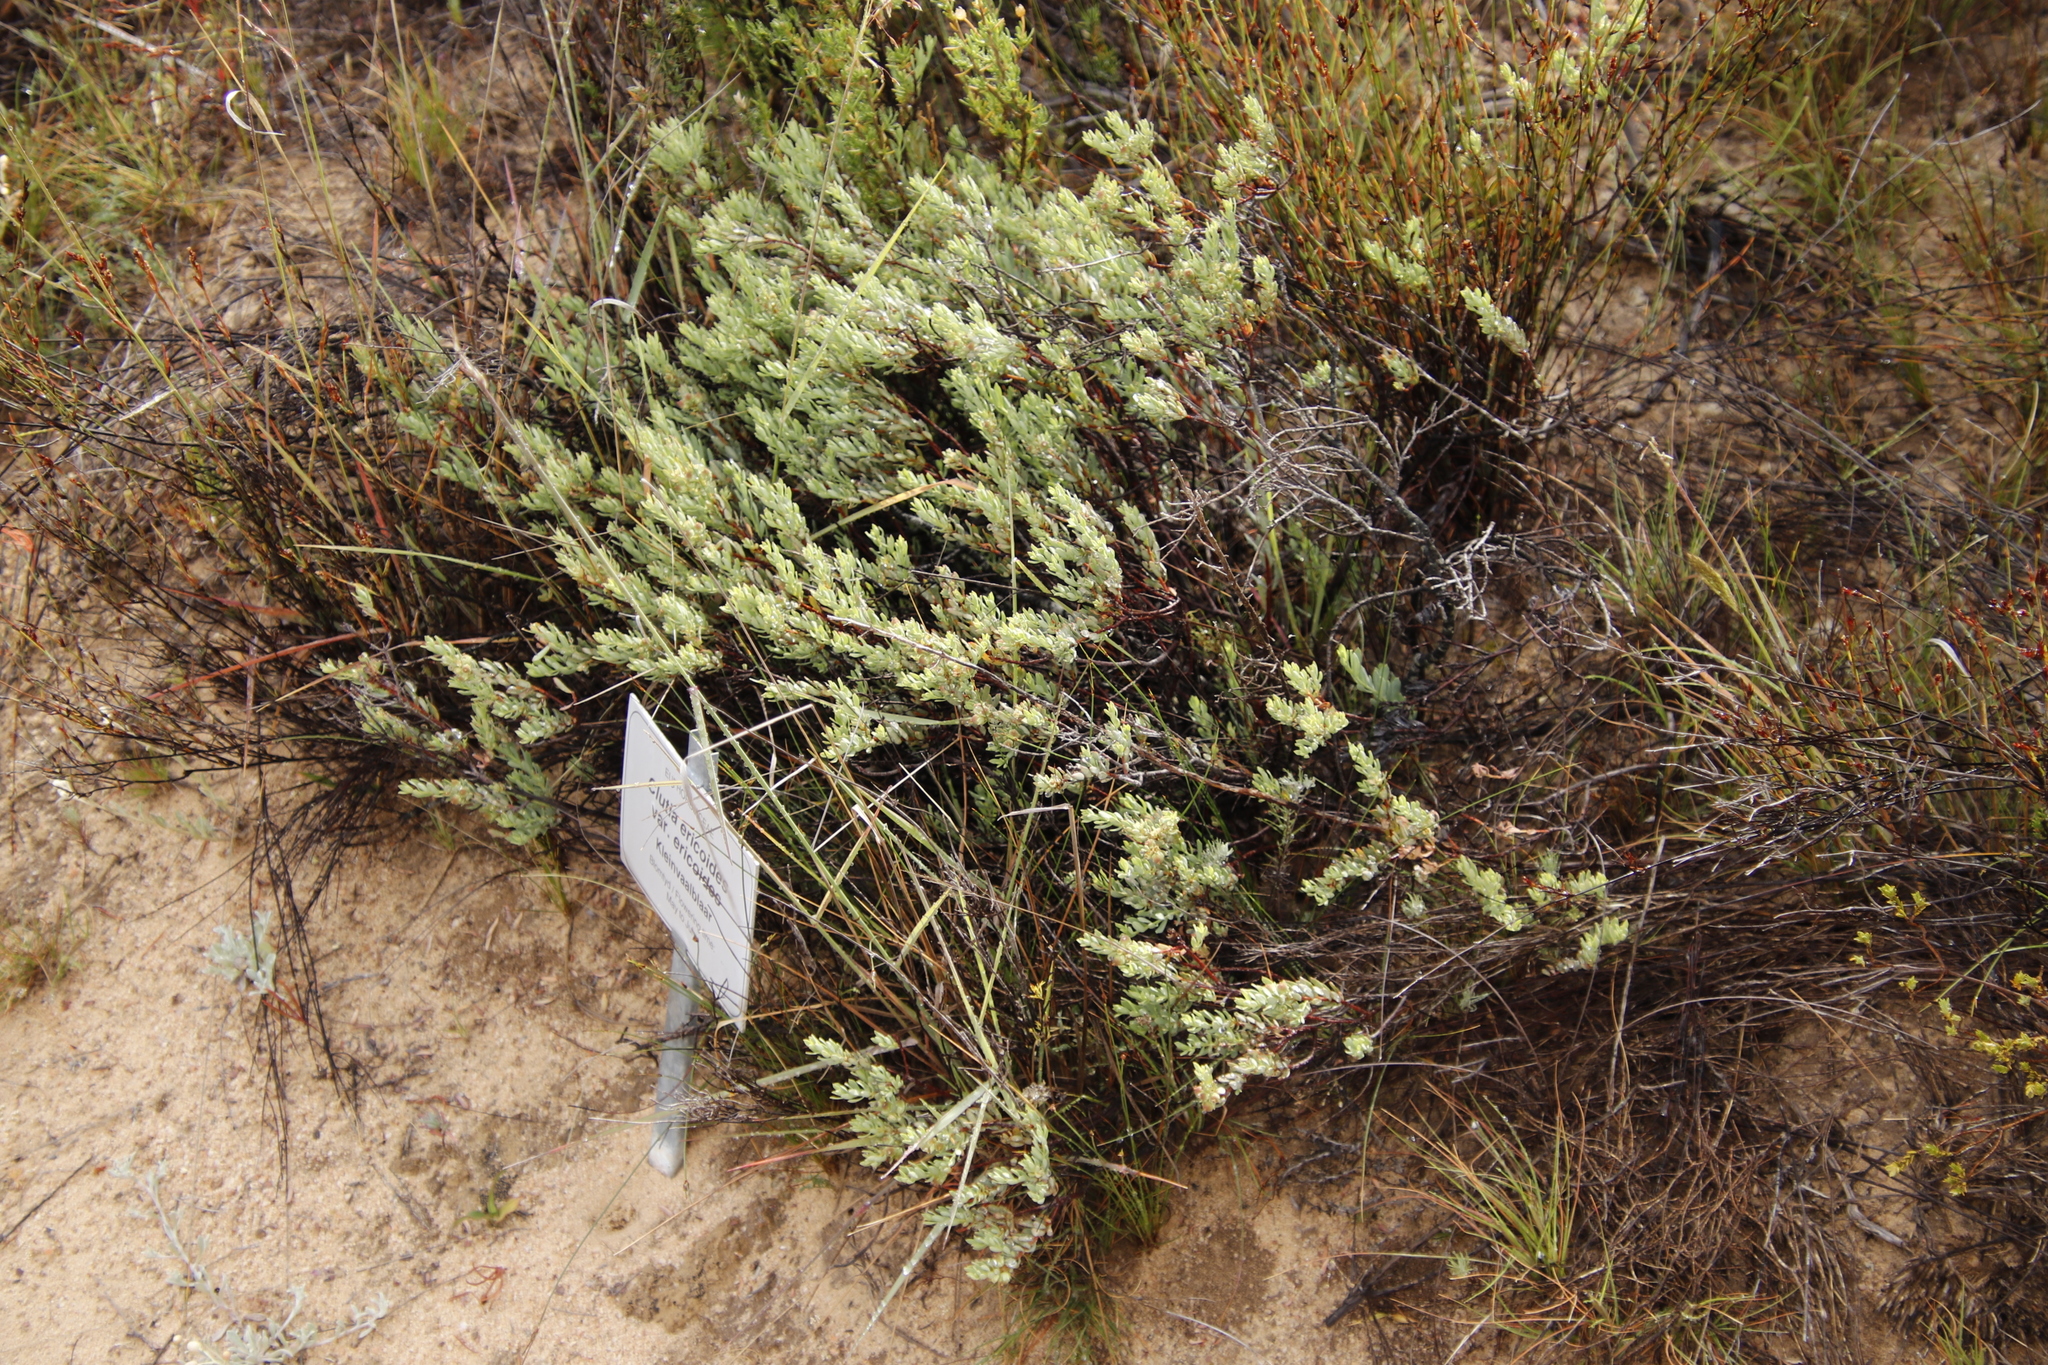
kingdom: Plantae
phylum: Tracheophyta
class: Magnoliopsida
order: Malpighiales
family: Peraceae
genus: Clutia
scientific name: Clutia ericoides
